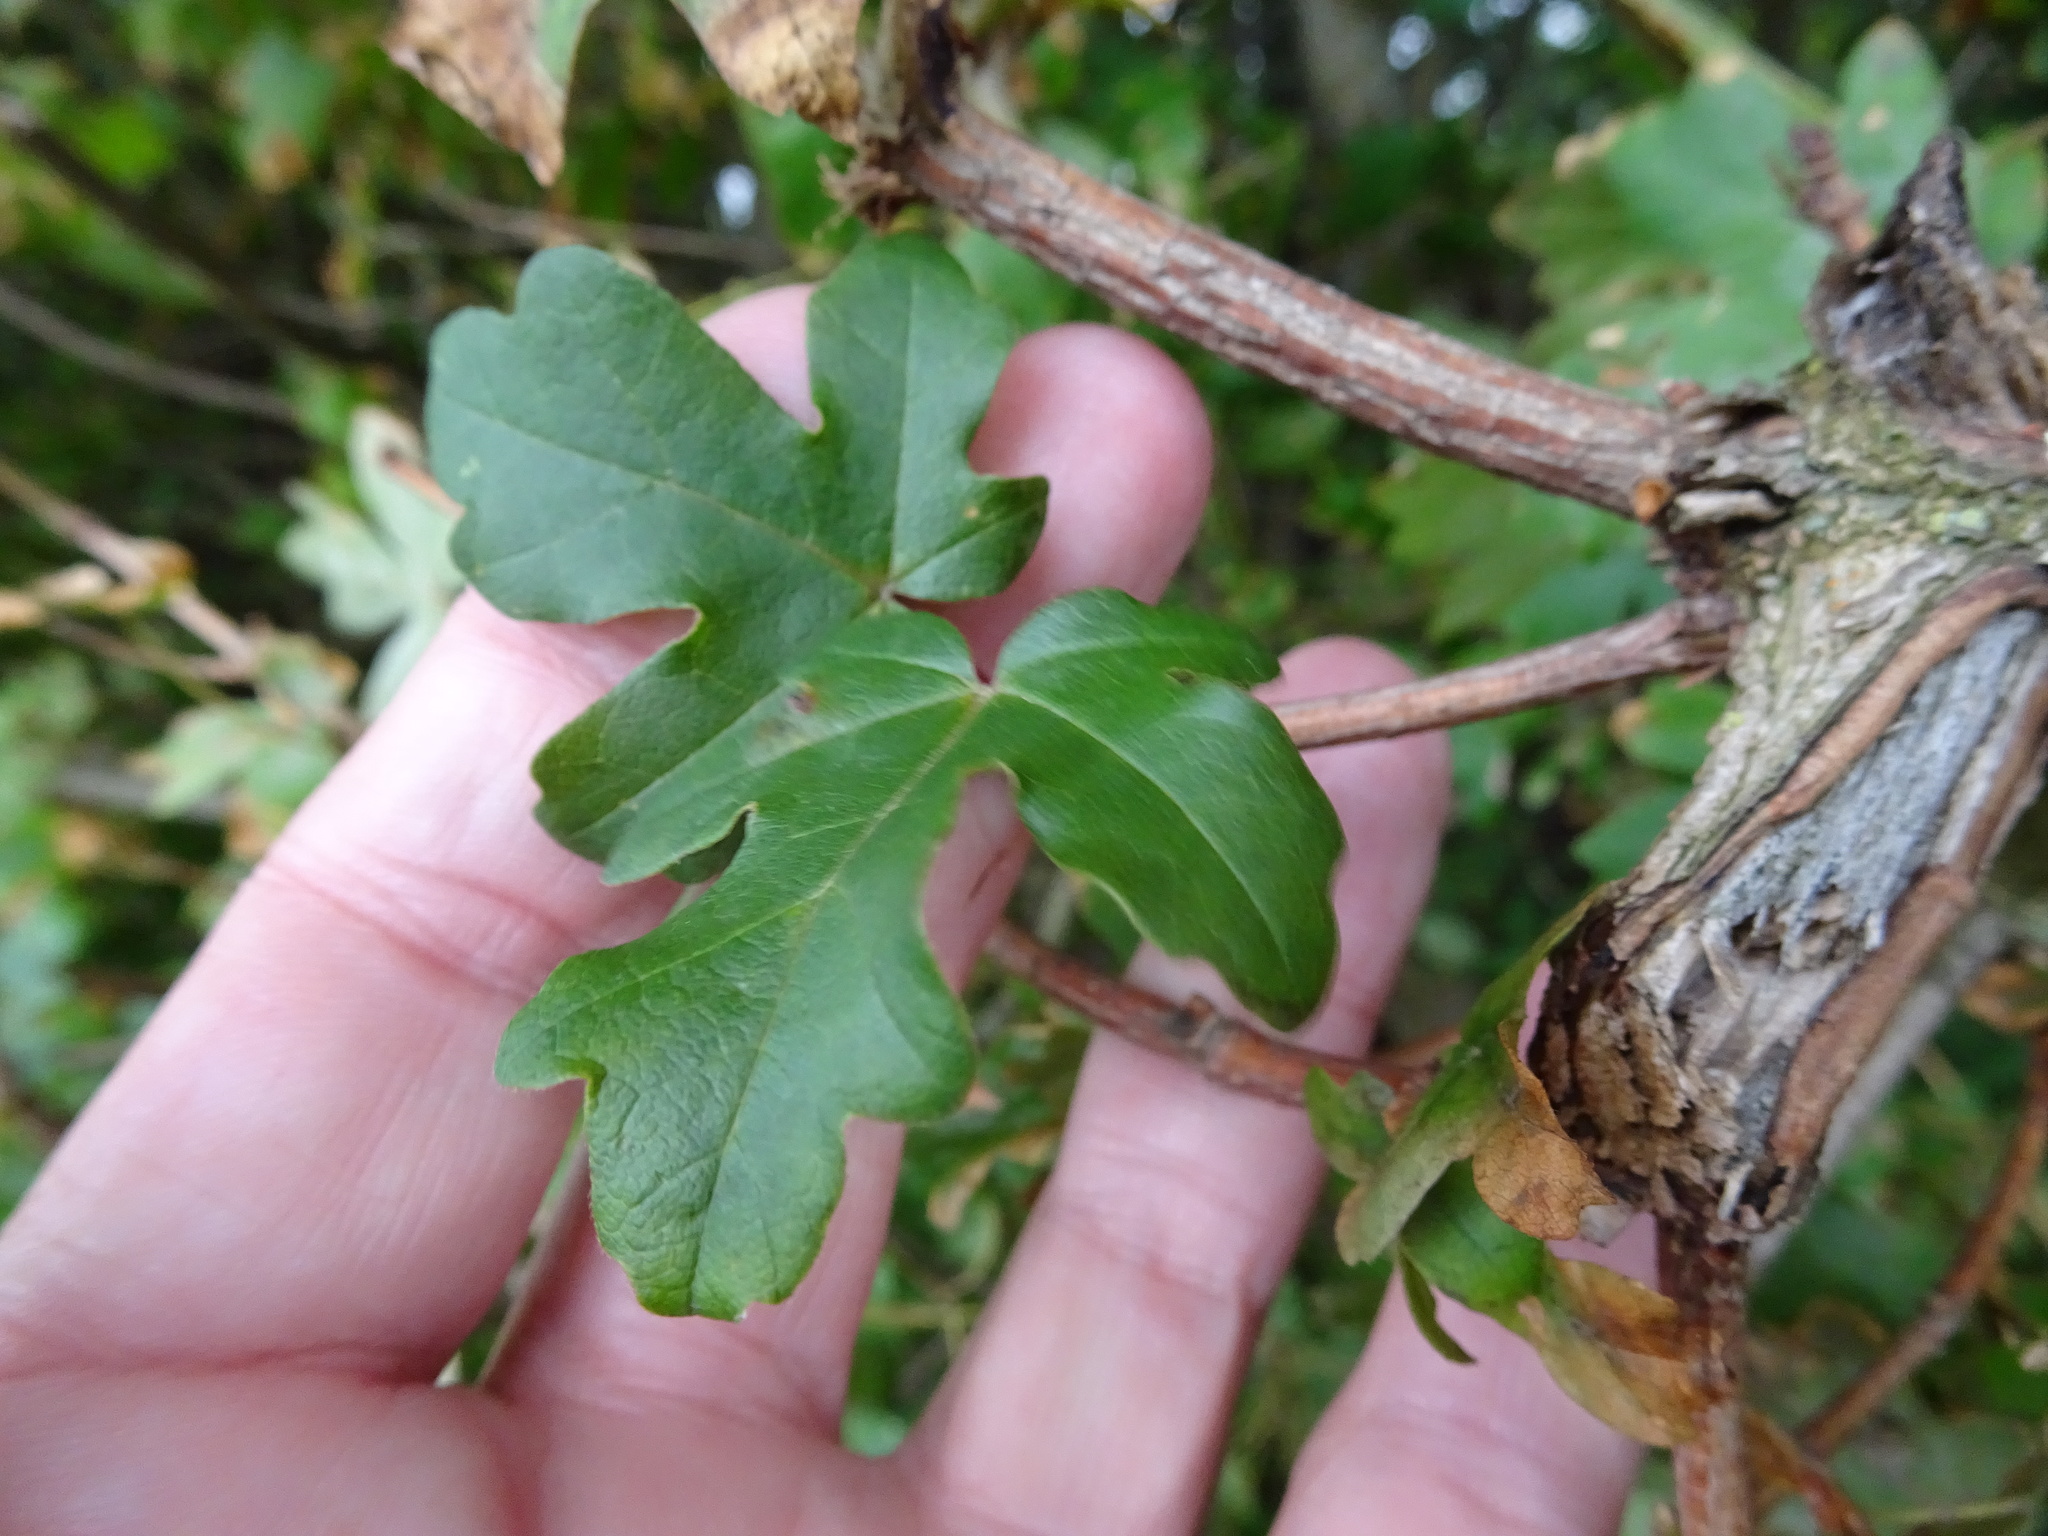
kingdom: Plantae
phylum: Tracheophyta
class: Magnoliopsida
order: Sapindales
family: Sapindaceae
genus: Acer
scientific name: Acer campestre
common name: Field maple
